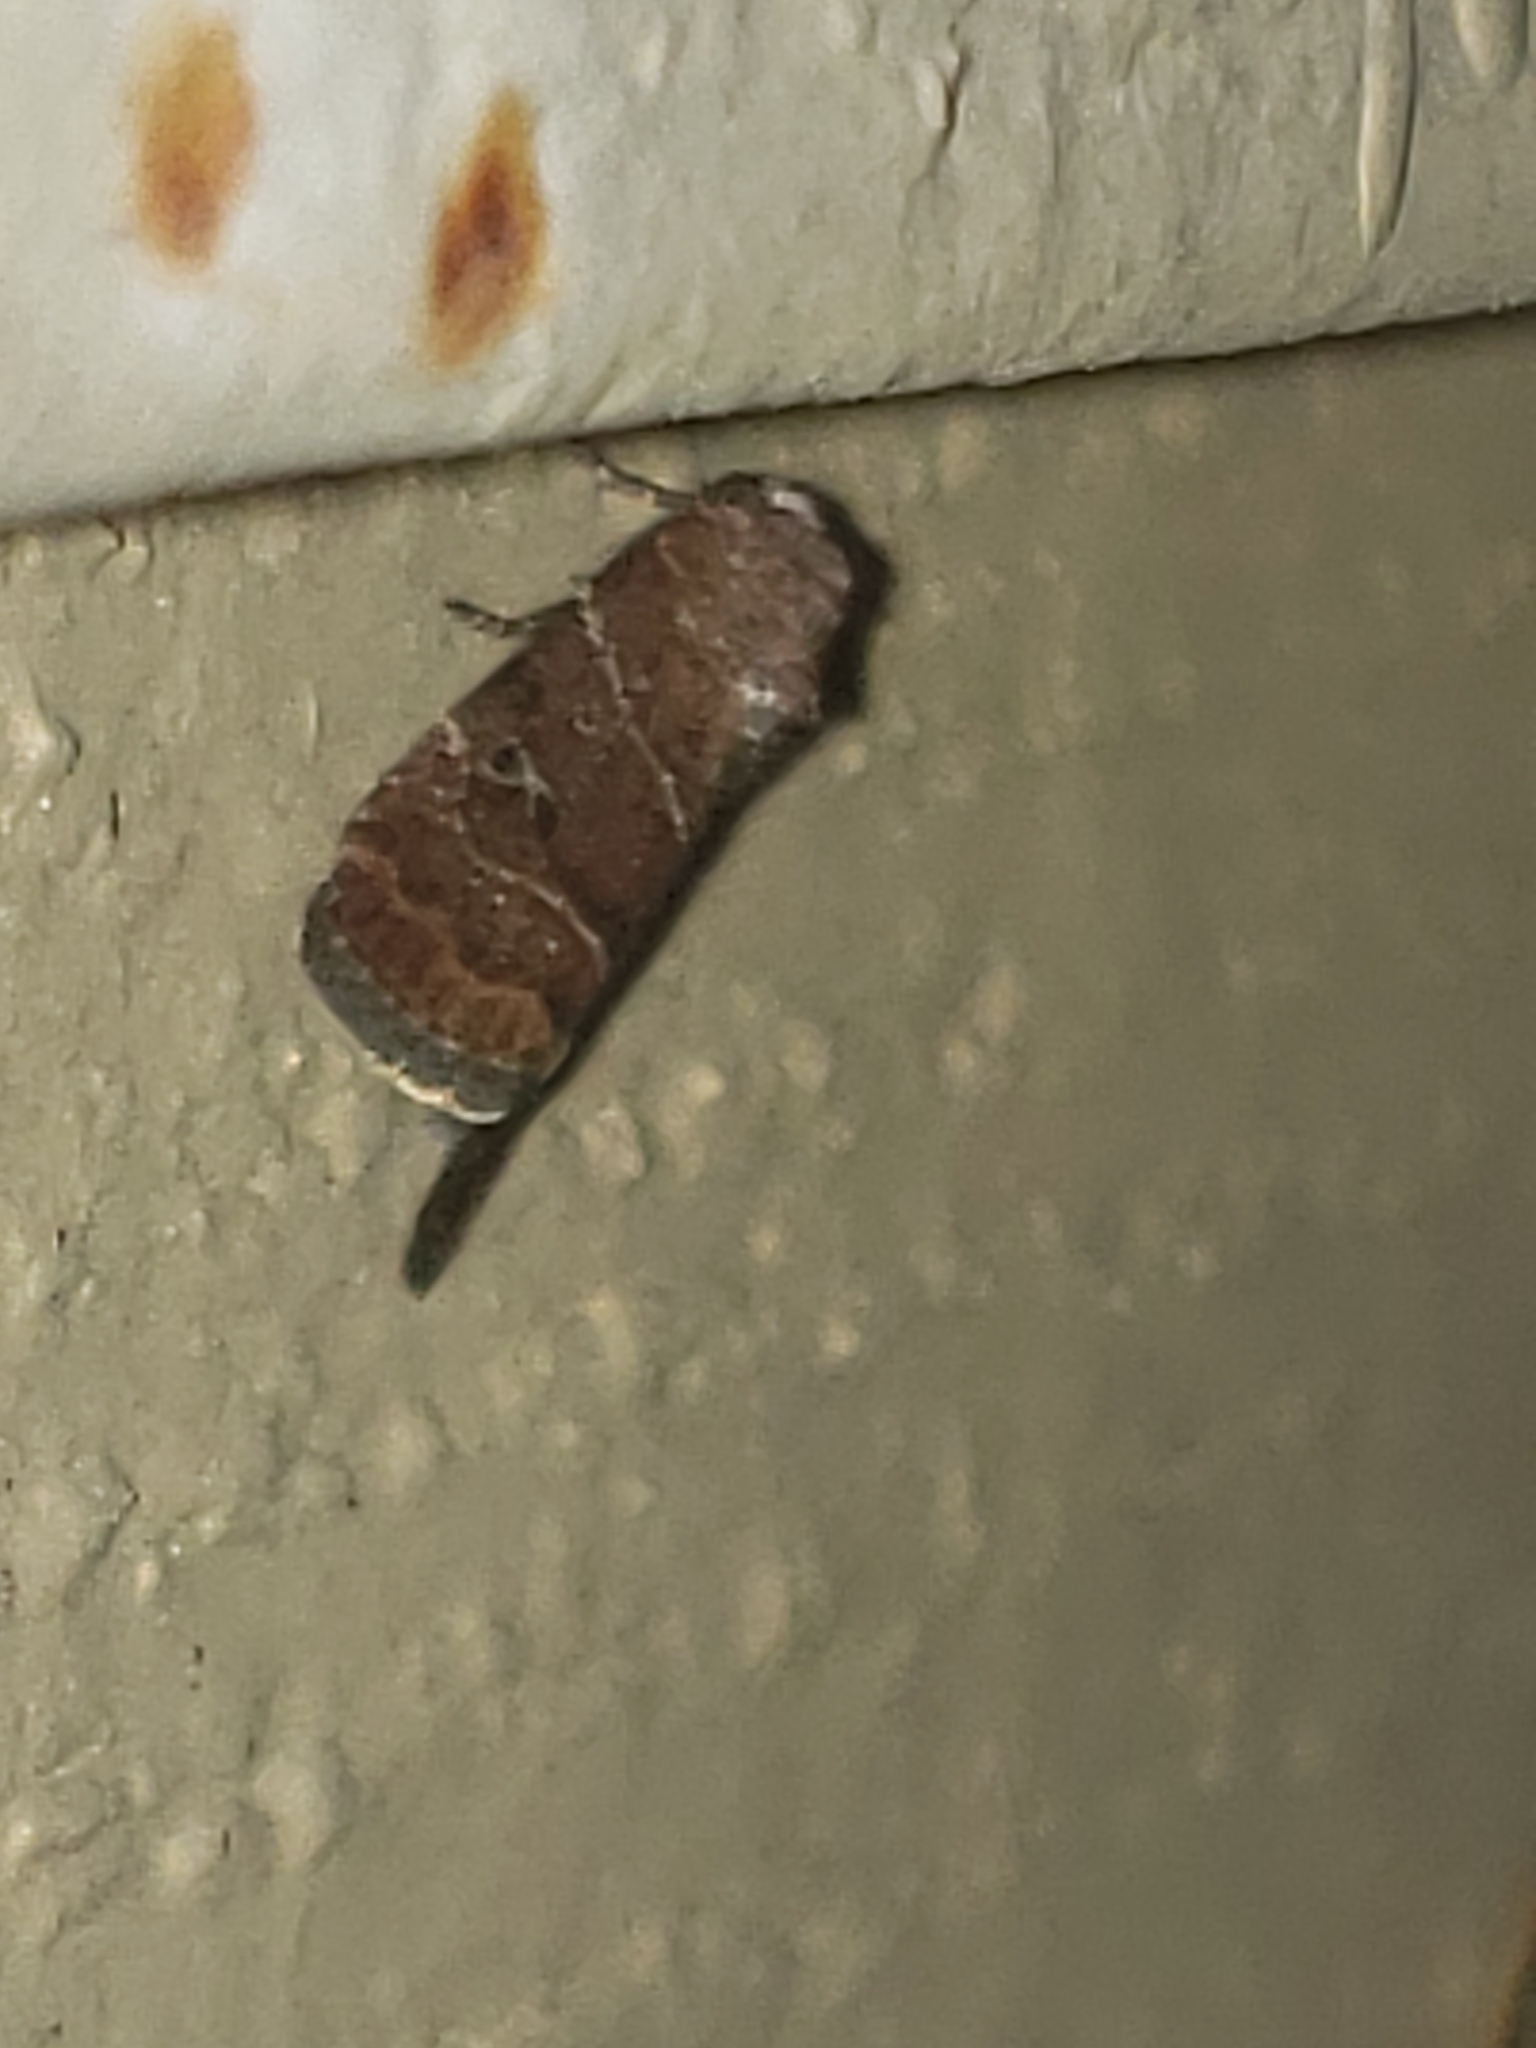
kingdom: Animalia
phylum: Arthropoda
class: Insecta
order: Lepidoptera
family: Noctuidae
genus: Elaphria
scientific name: Elaphria grata
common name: Grateful midget moth
